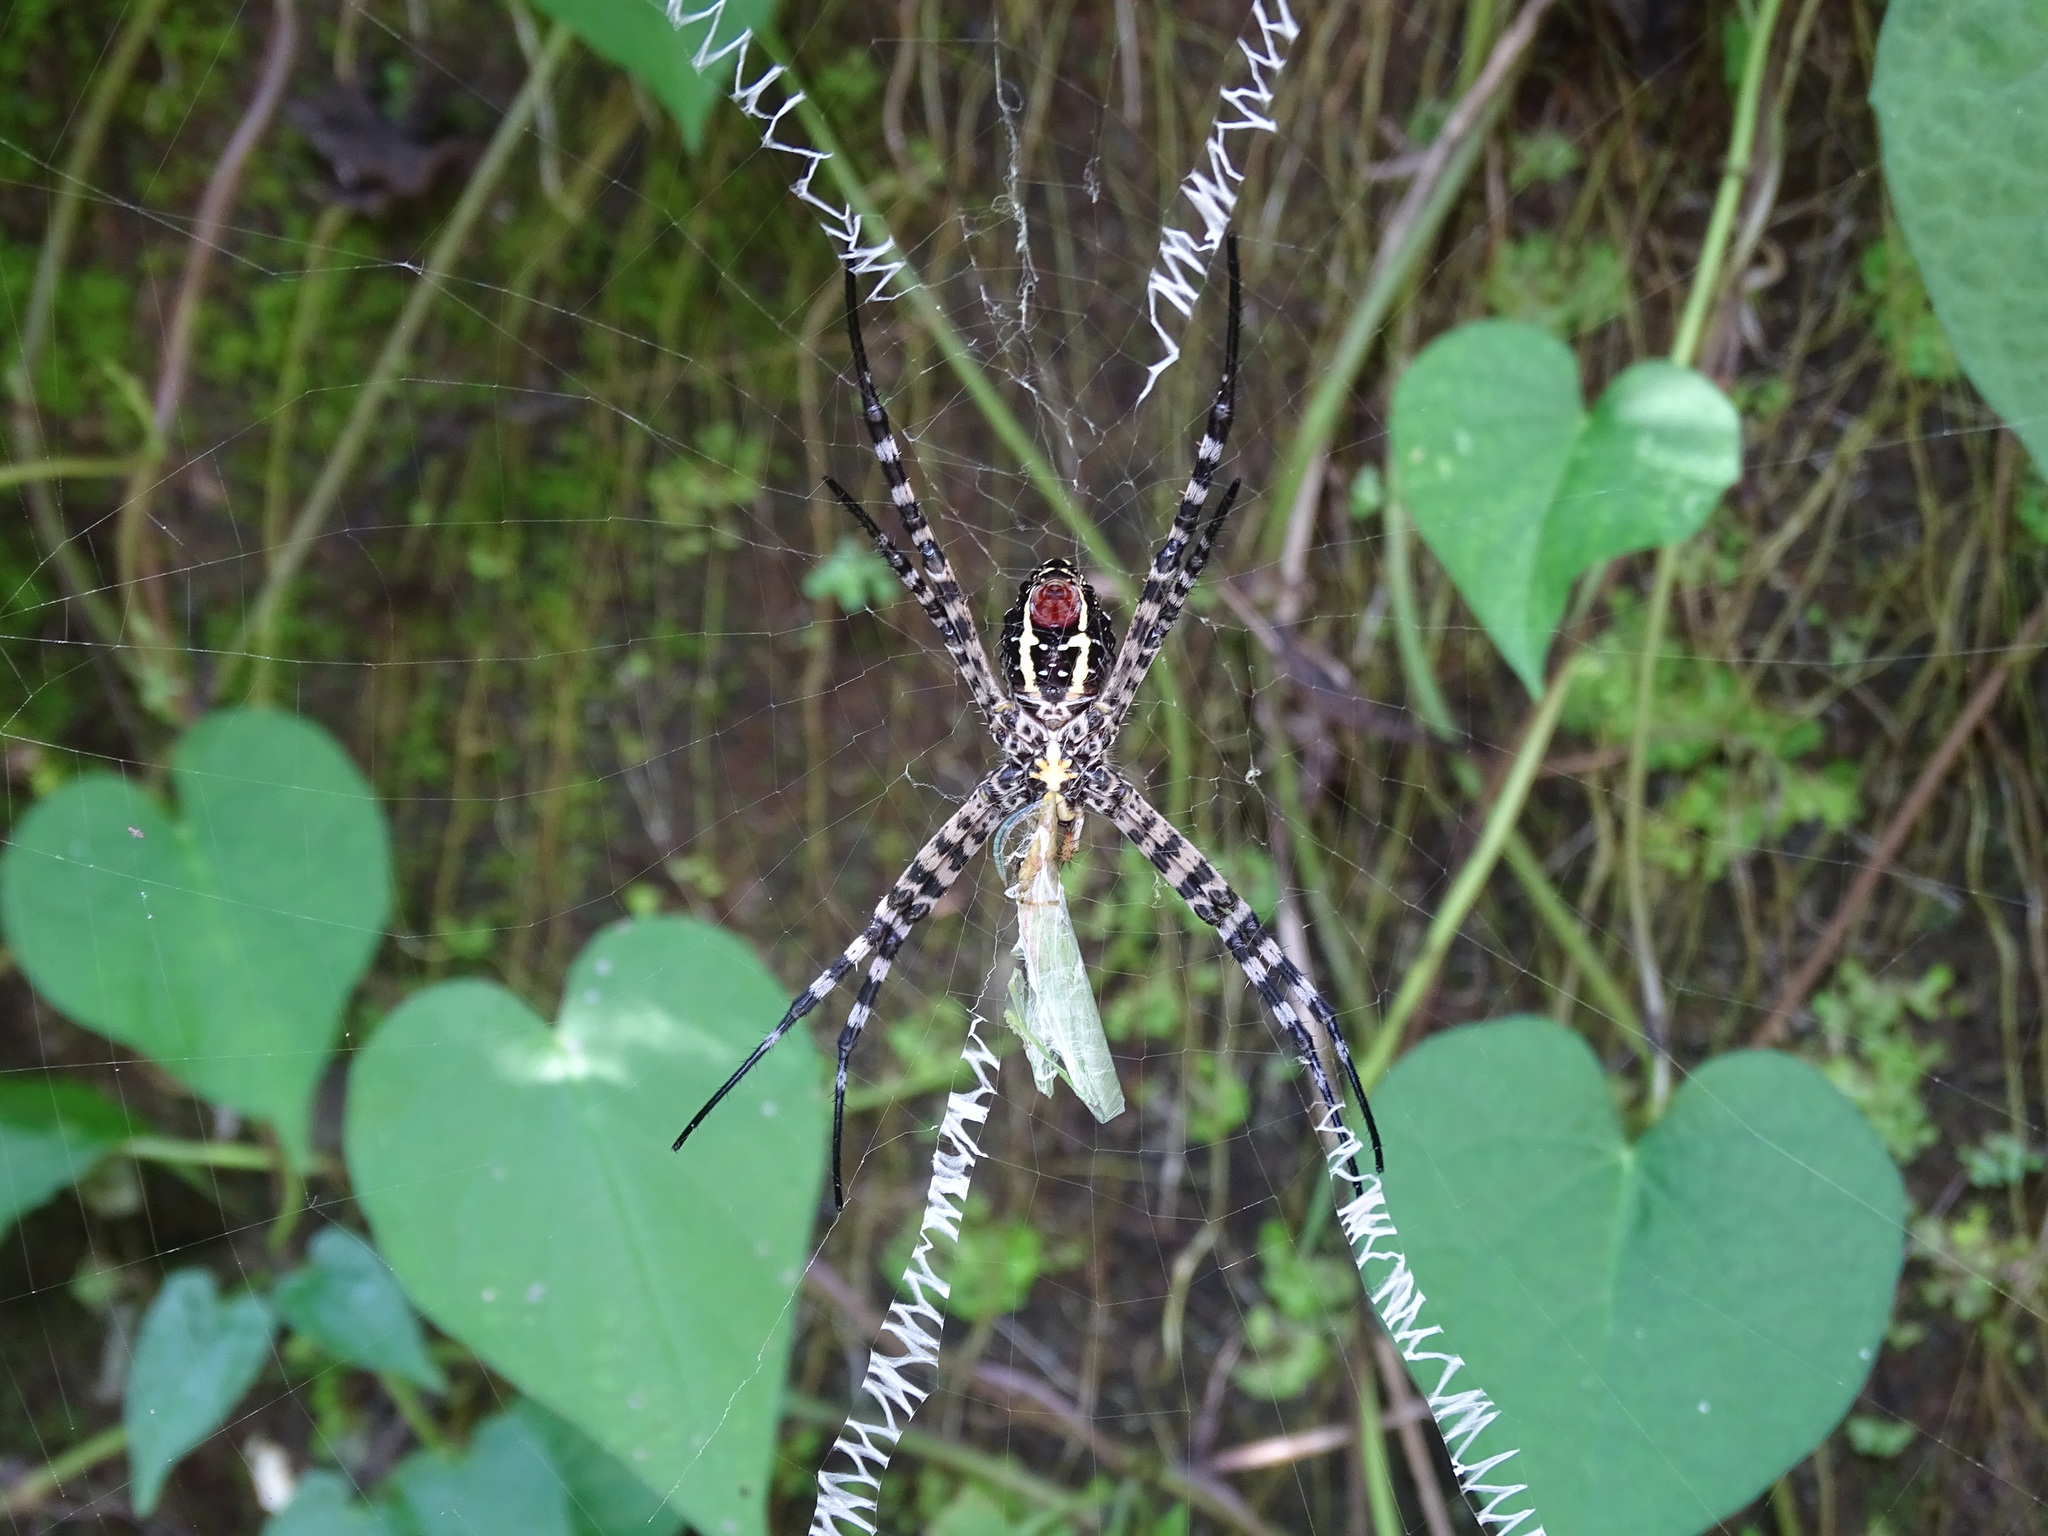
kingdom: Animalia
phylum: Arthropoda
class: Arachnida
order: Araneae
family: Araneidae
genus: Argiope
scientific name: Argiope aemula
